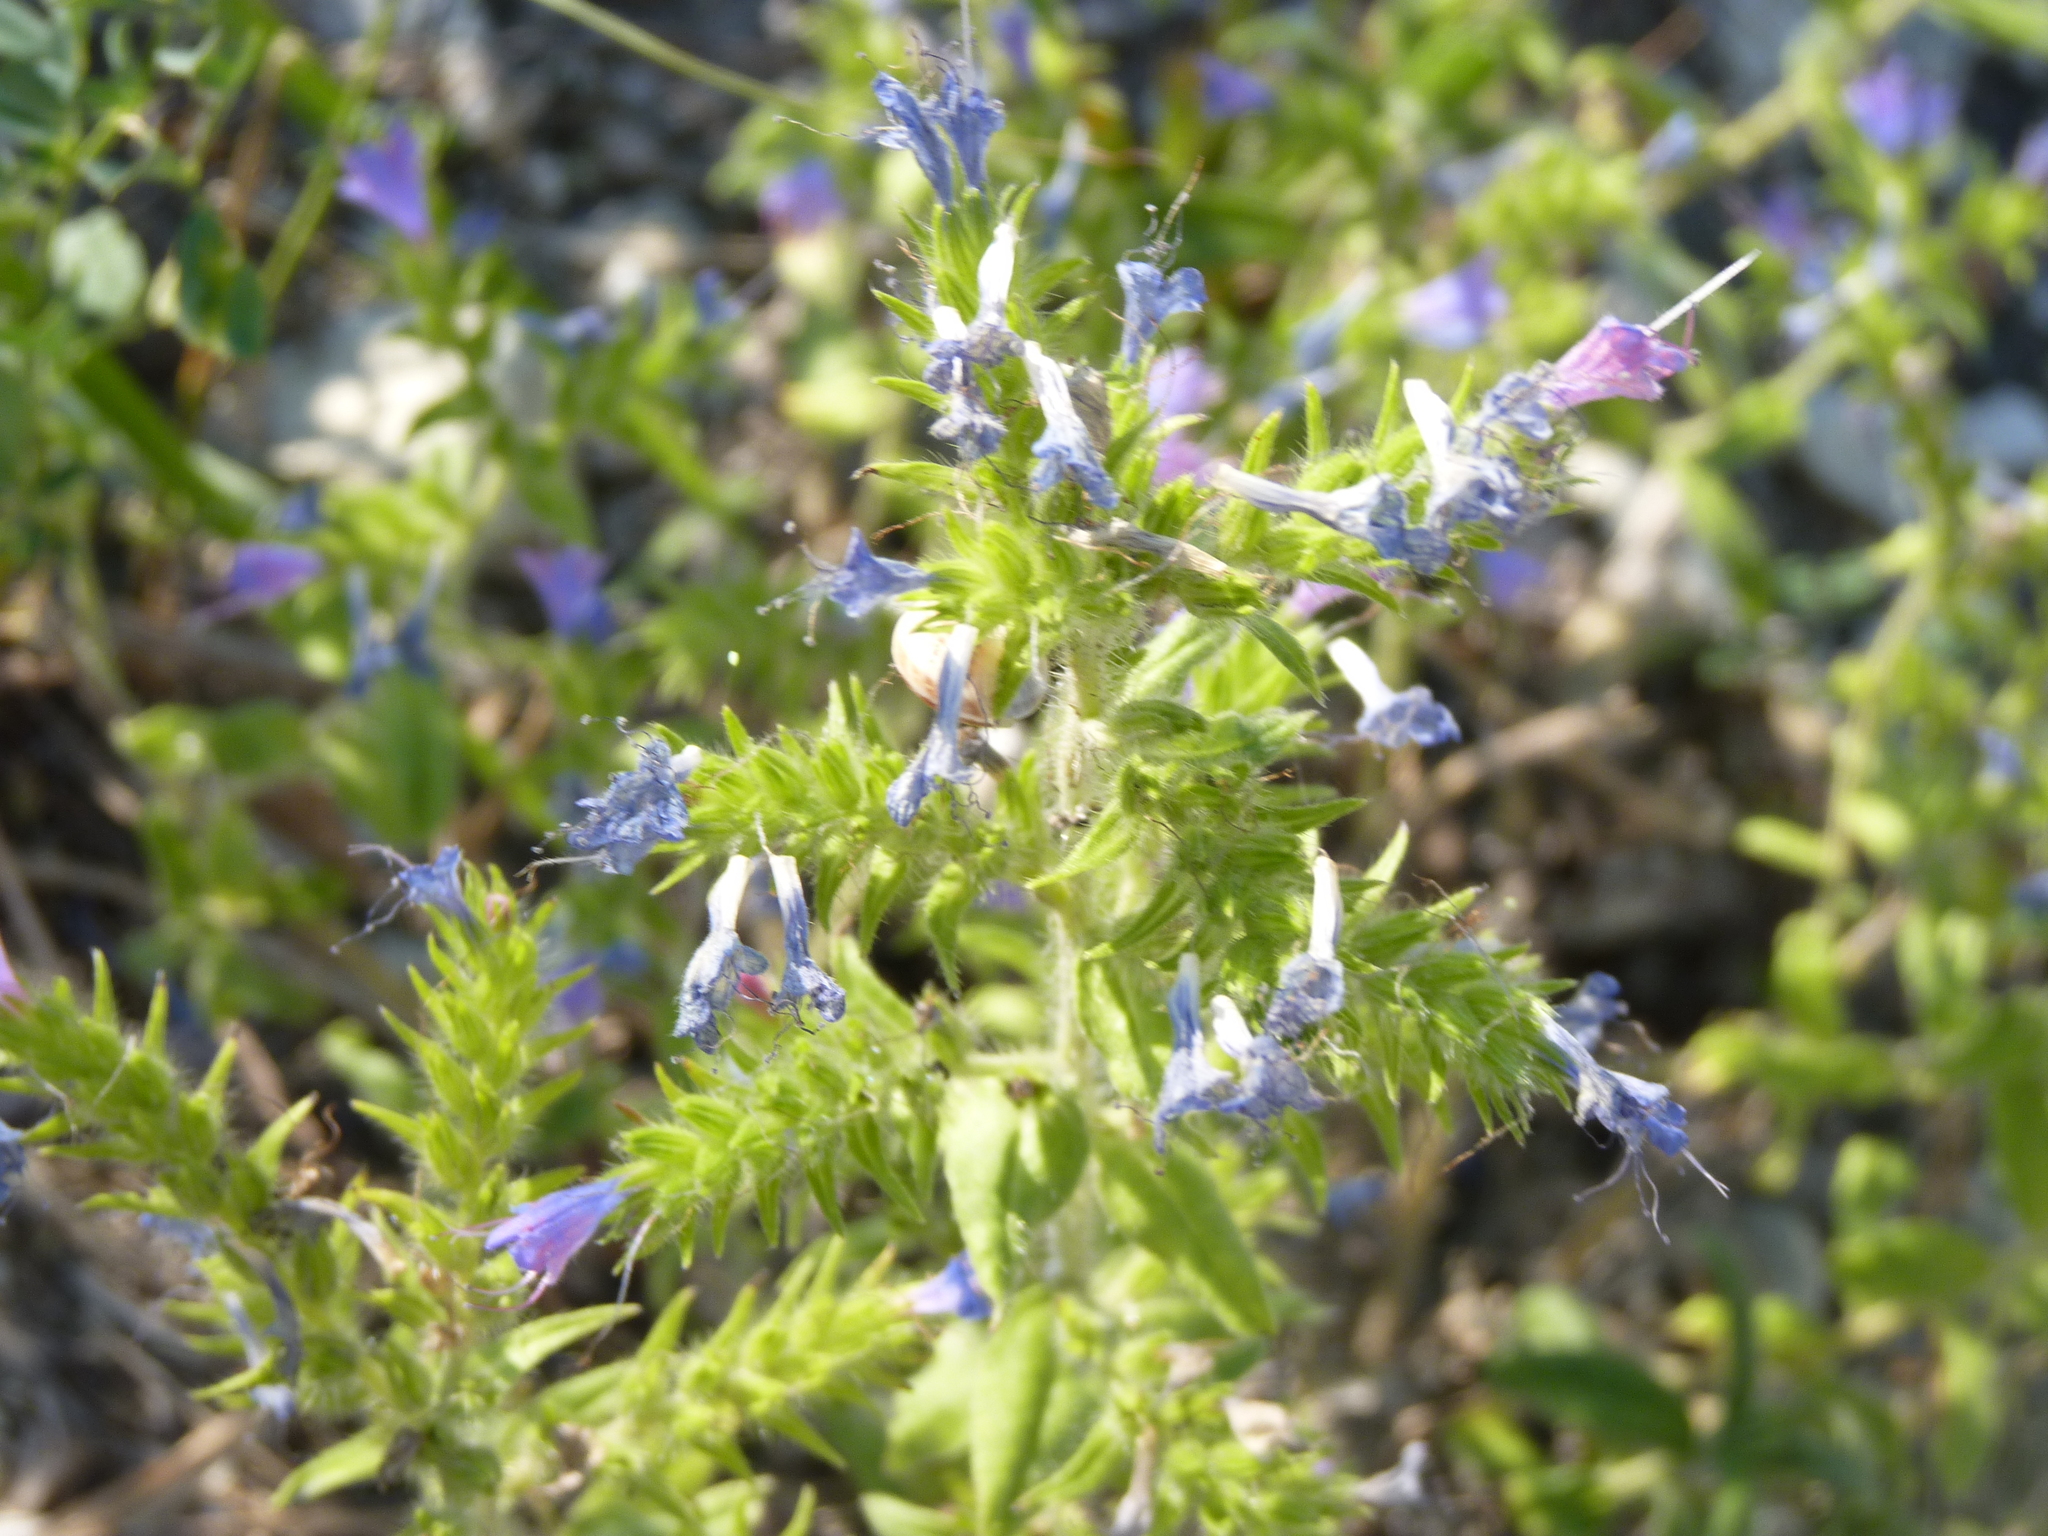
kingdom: Plantae
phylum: Tracheophyta
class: Magnoliopsida
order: Boraginales
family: Boraginaceae
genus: Echium
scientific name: Echium vulgare
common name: Common viper's bugloss
